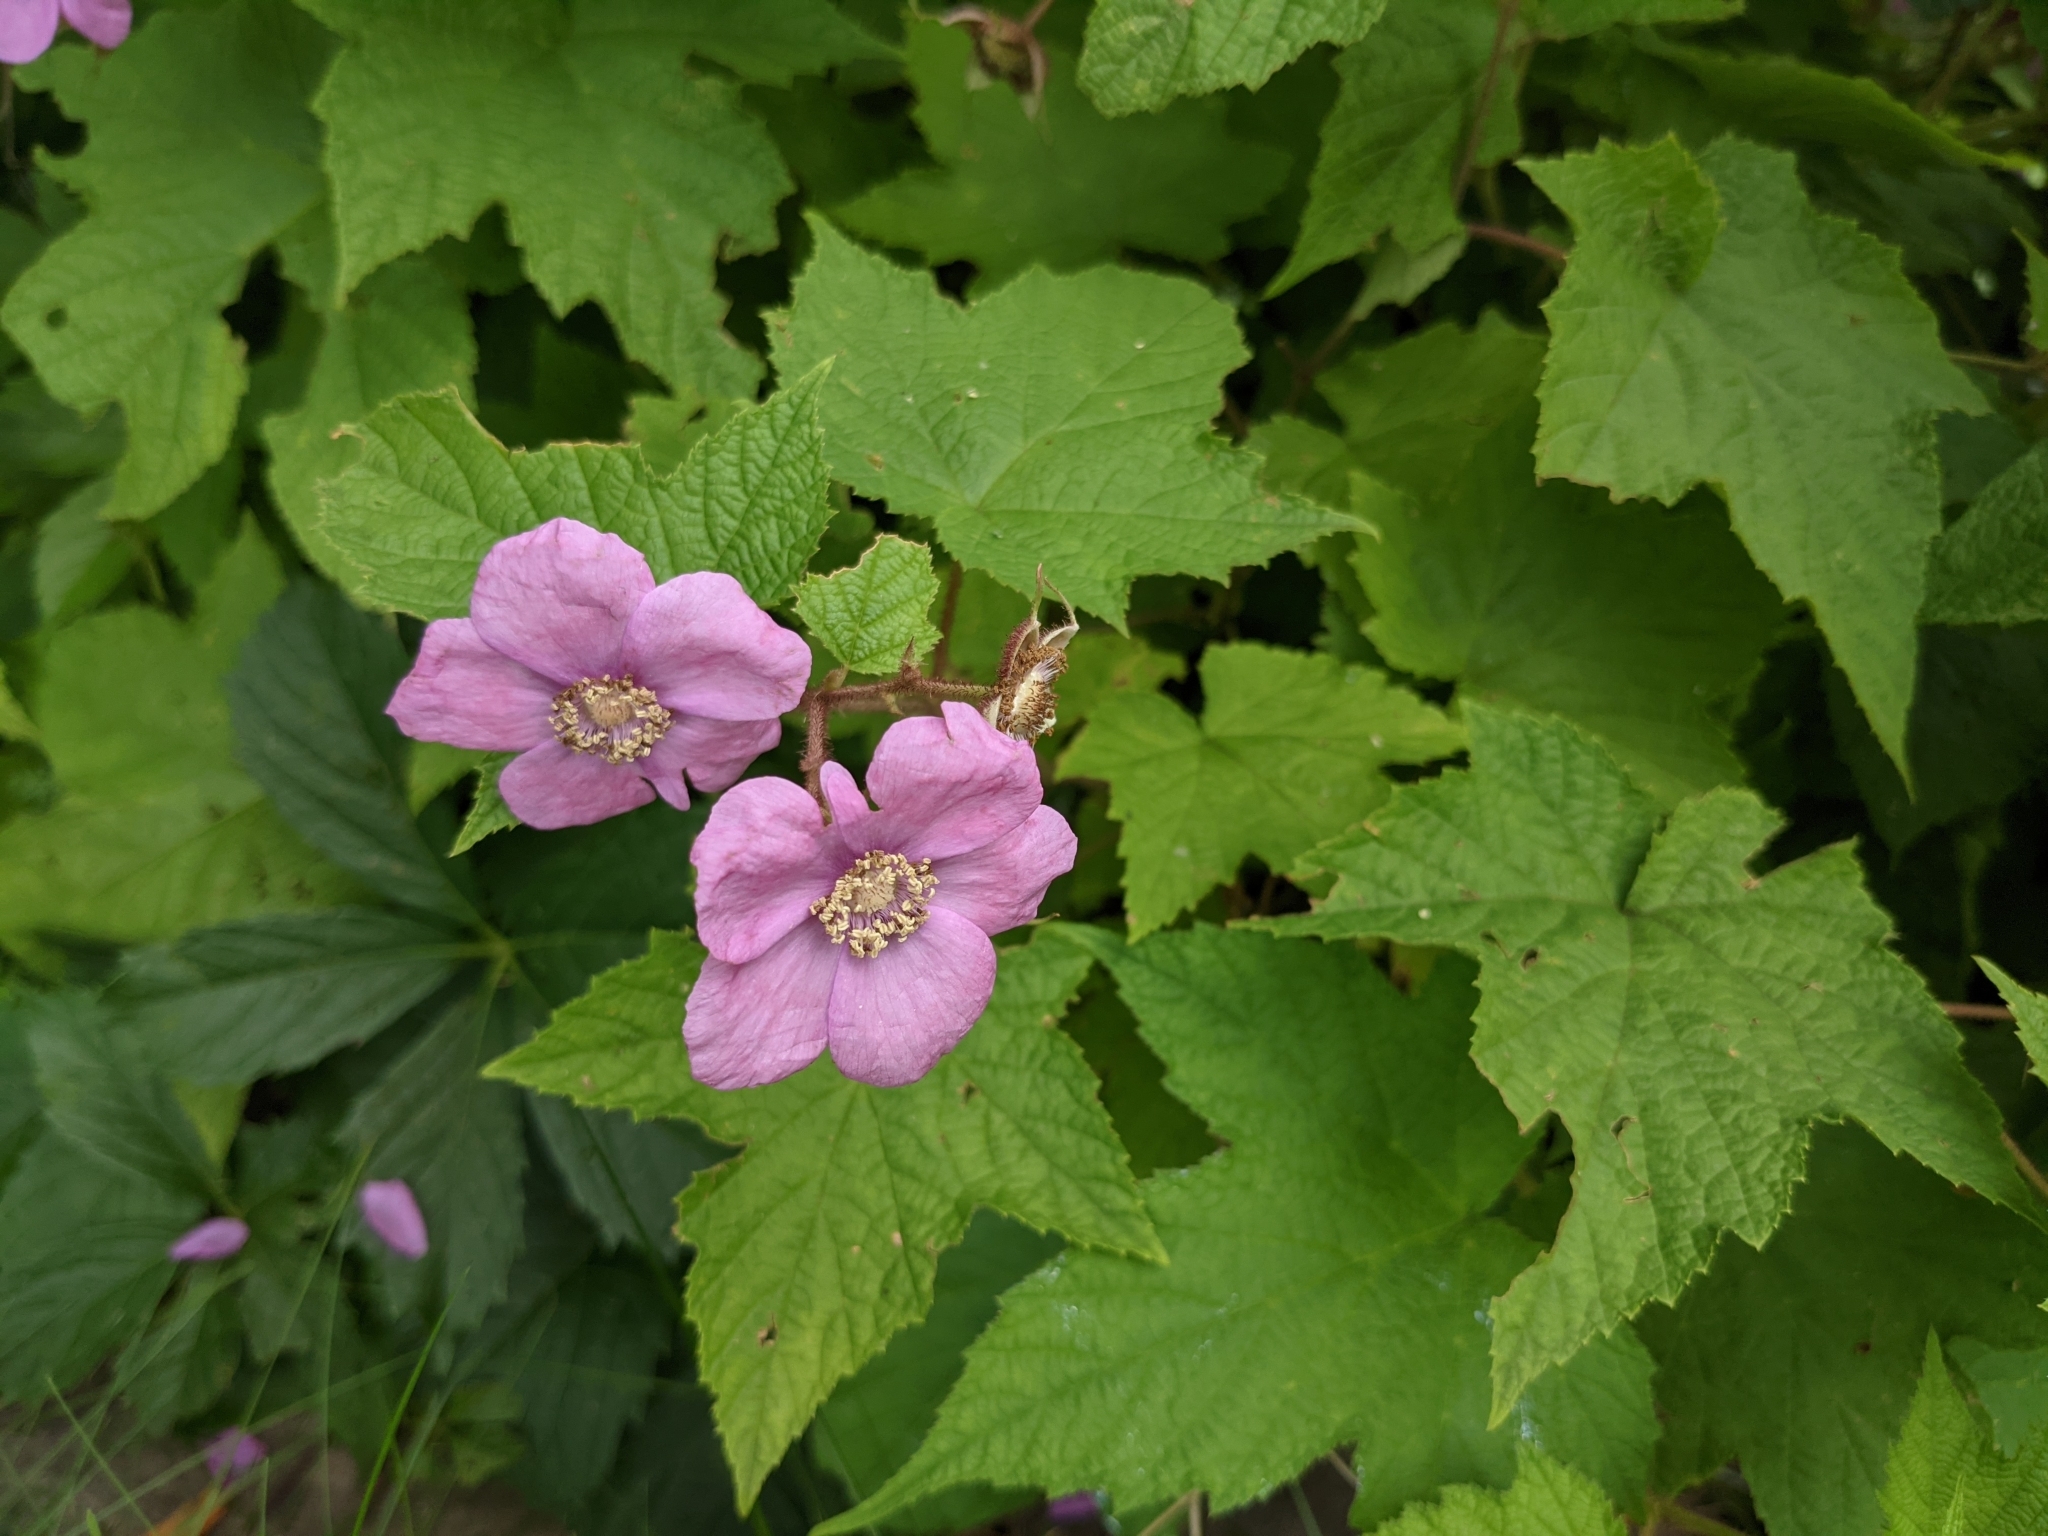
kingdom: Plantae
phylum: Tracheophyta
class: Magnoliopsida
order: Rosales
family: Rosaceae
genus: Rubus
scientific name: Rubus odoratus
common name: Purple-flowered raspberry
